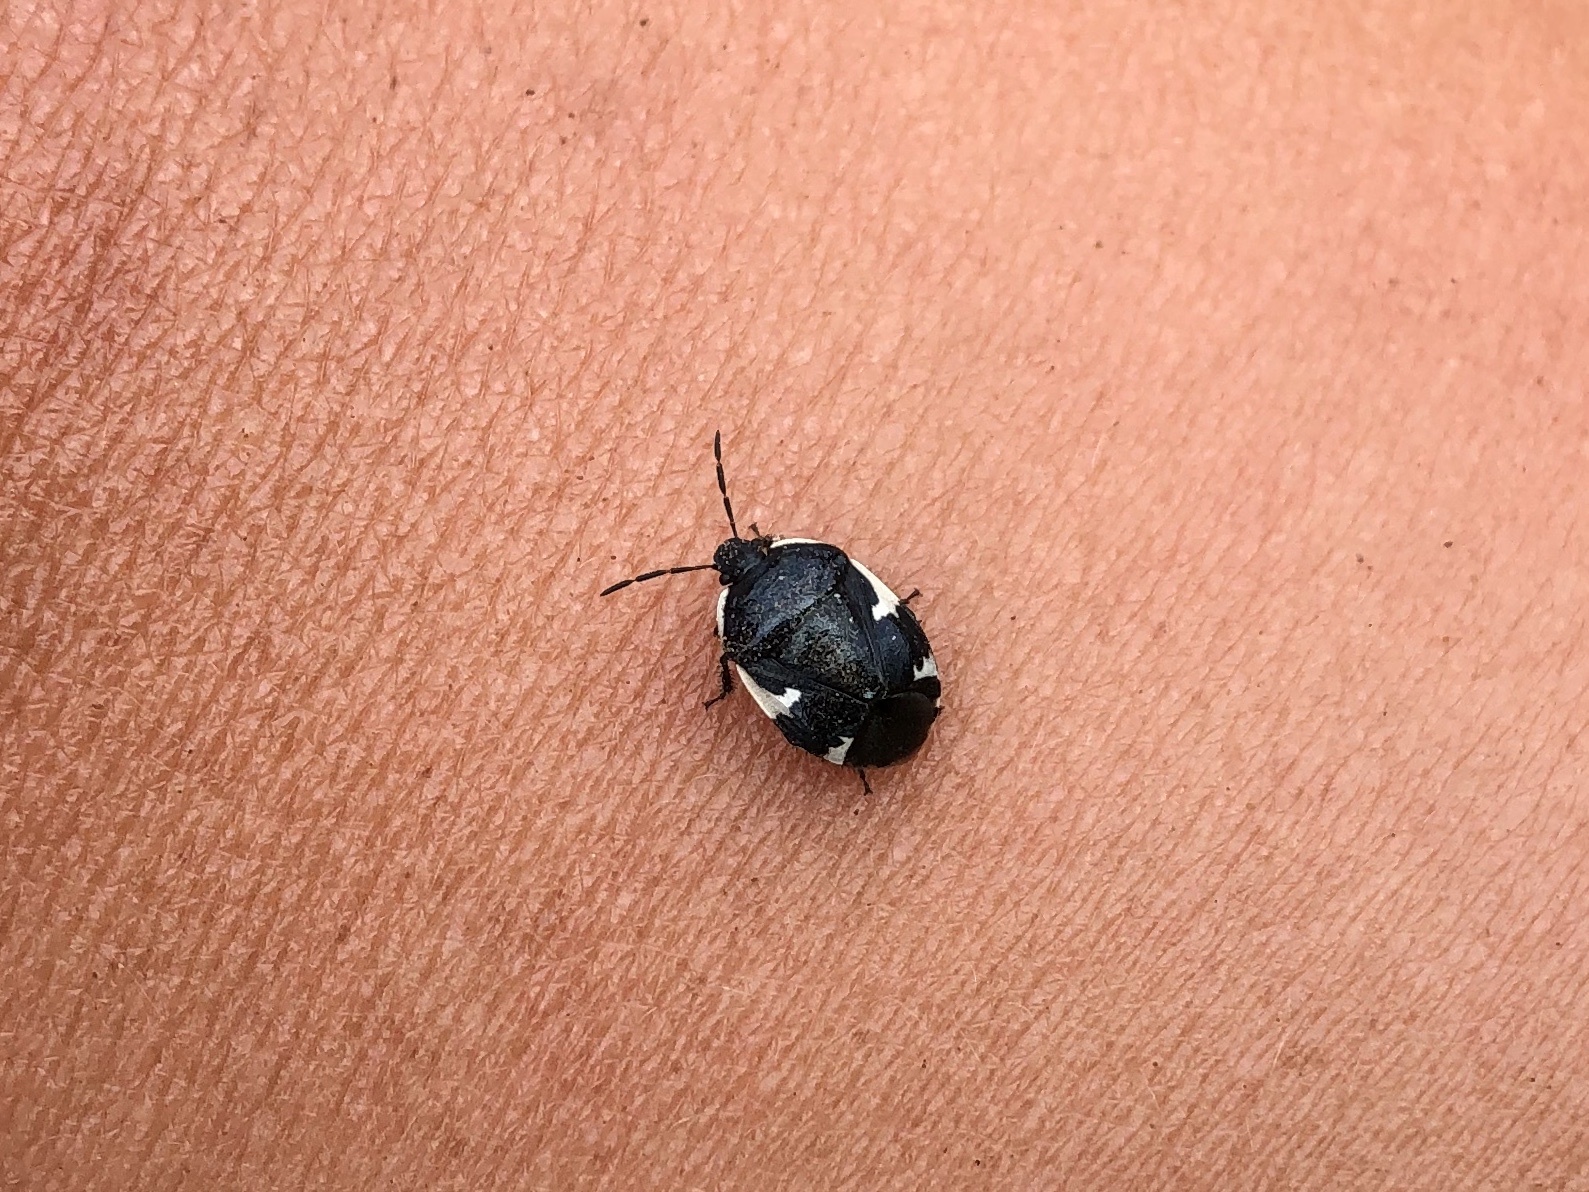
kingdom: Animalia
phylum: Arthropoda
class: Insecta
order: Hemiptera
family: Cydnidae
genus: Tritomegas
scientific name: Tritomegas sexmaculatus
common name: Rambur's pied shieldbug
